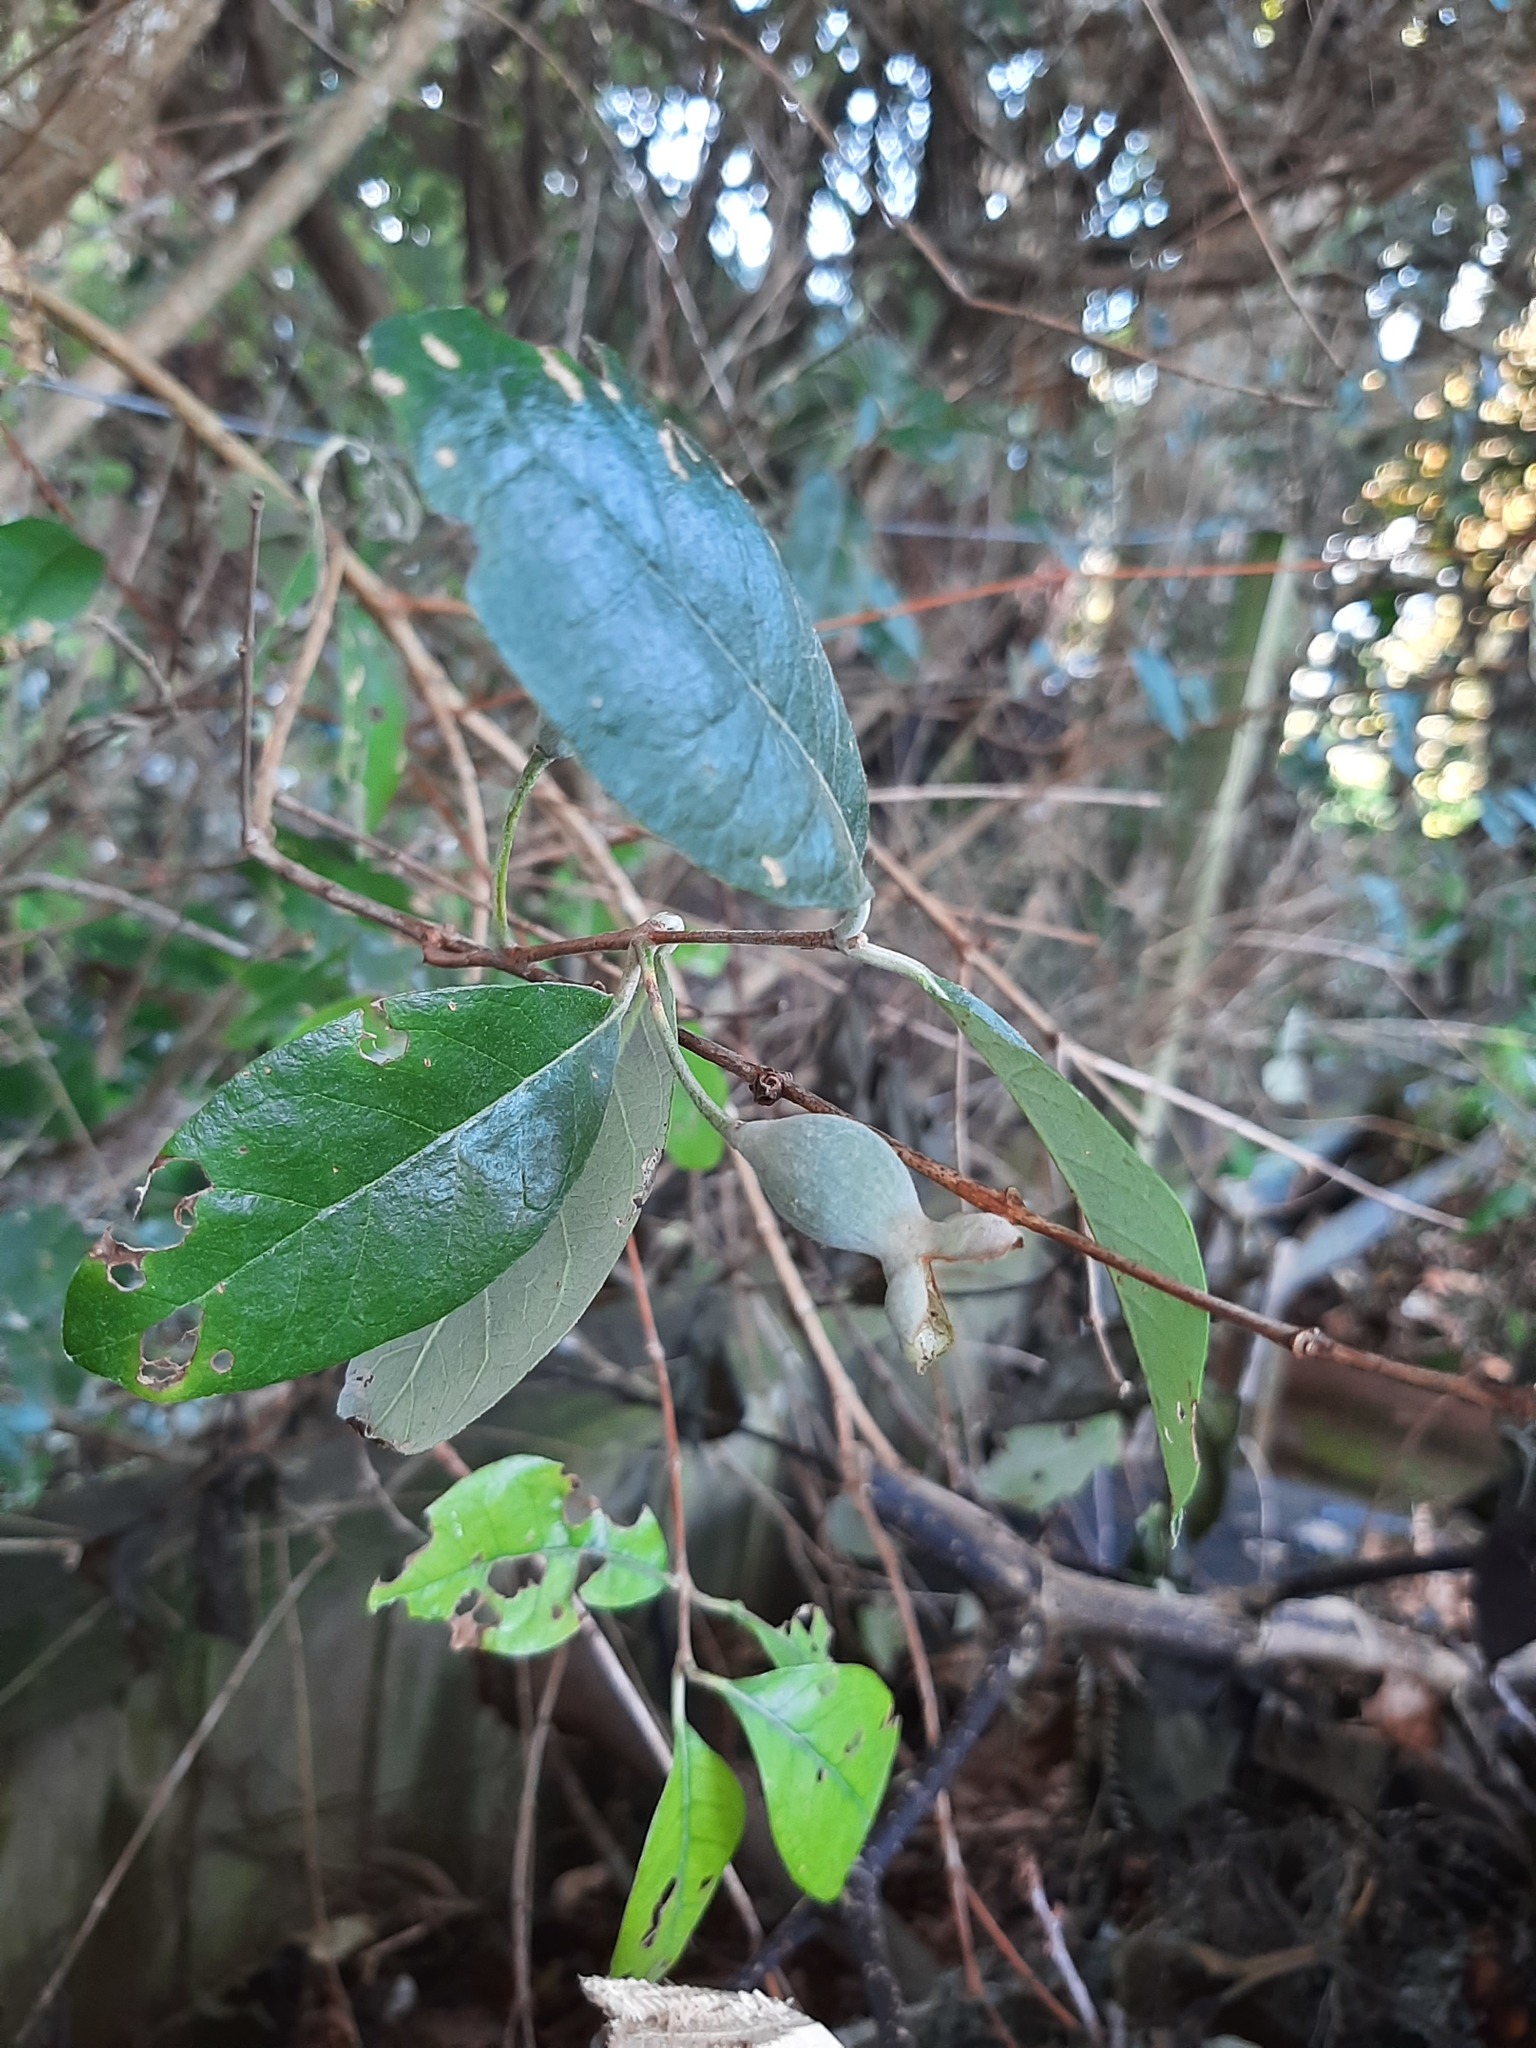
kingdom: Plantae
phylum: Tracheophyta
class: Magnoliopsida
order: Myrtales
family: Myrtaceae
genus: Feijoa
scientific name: Feijoa sellowiana
